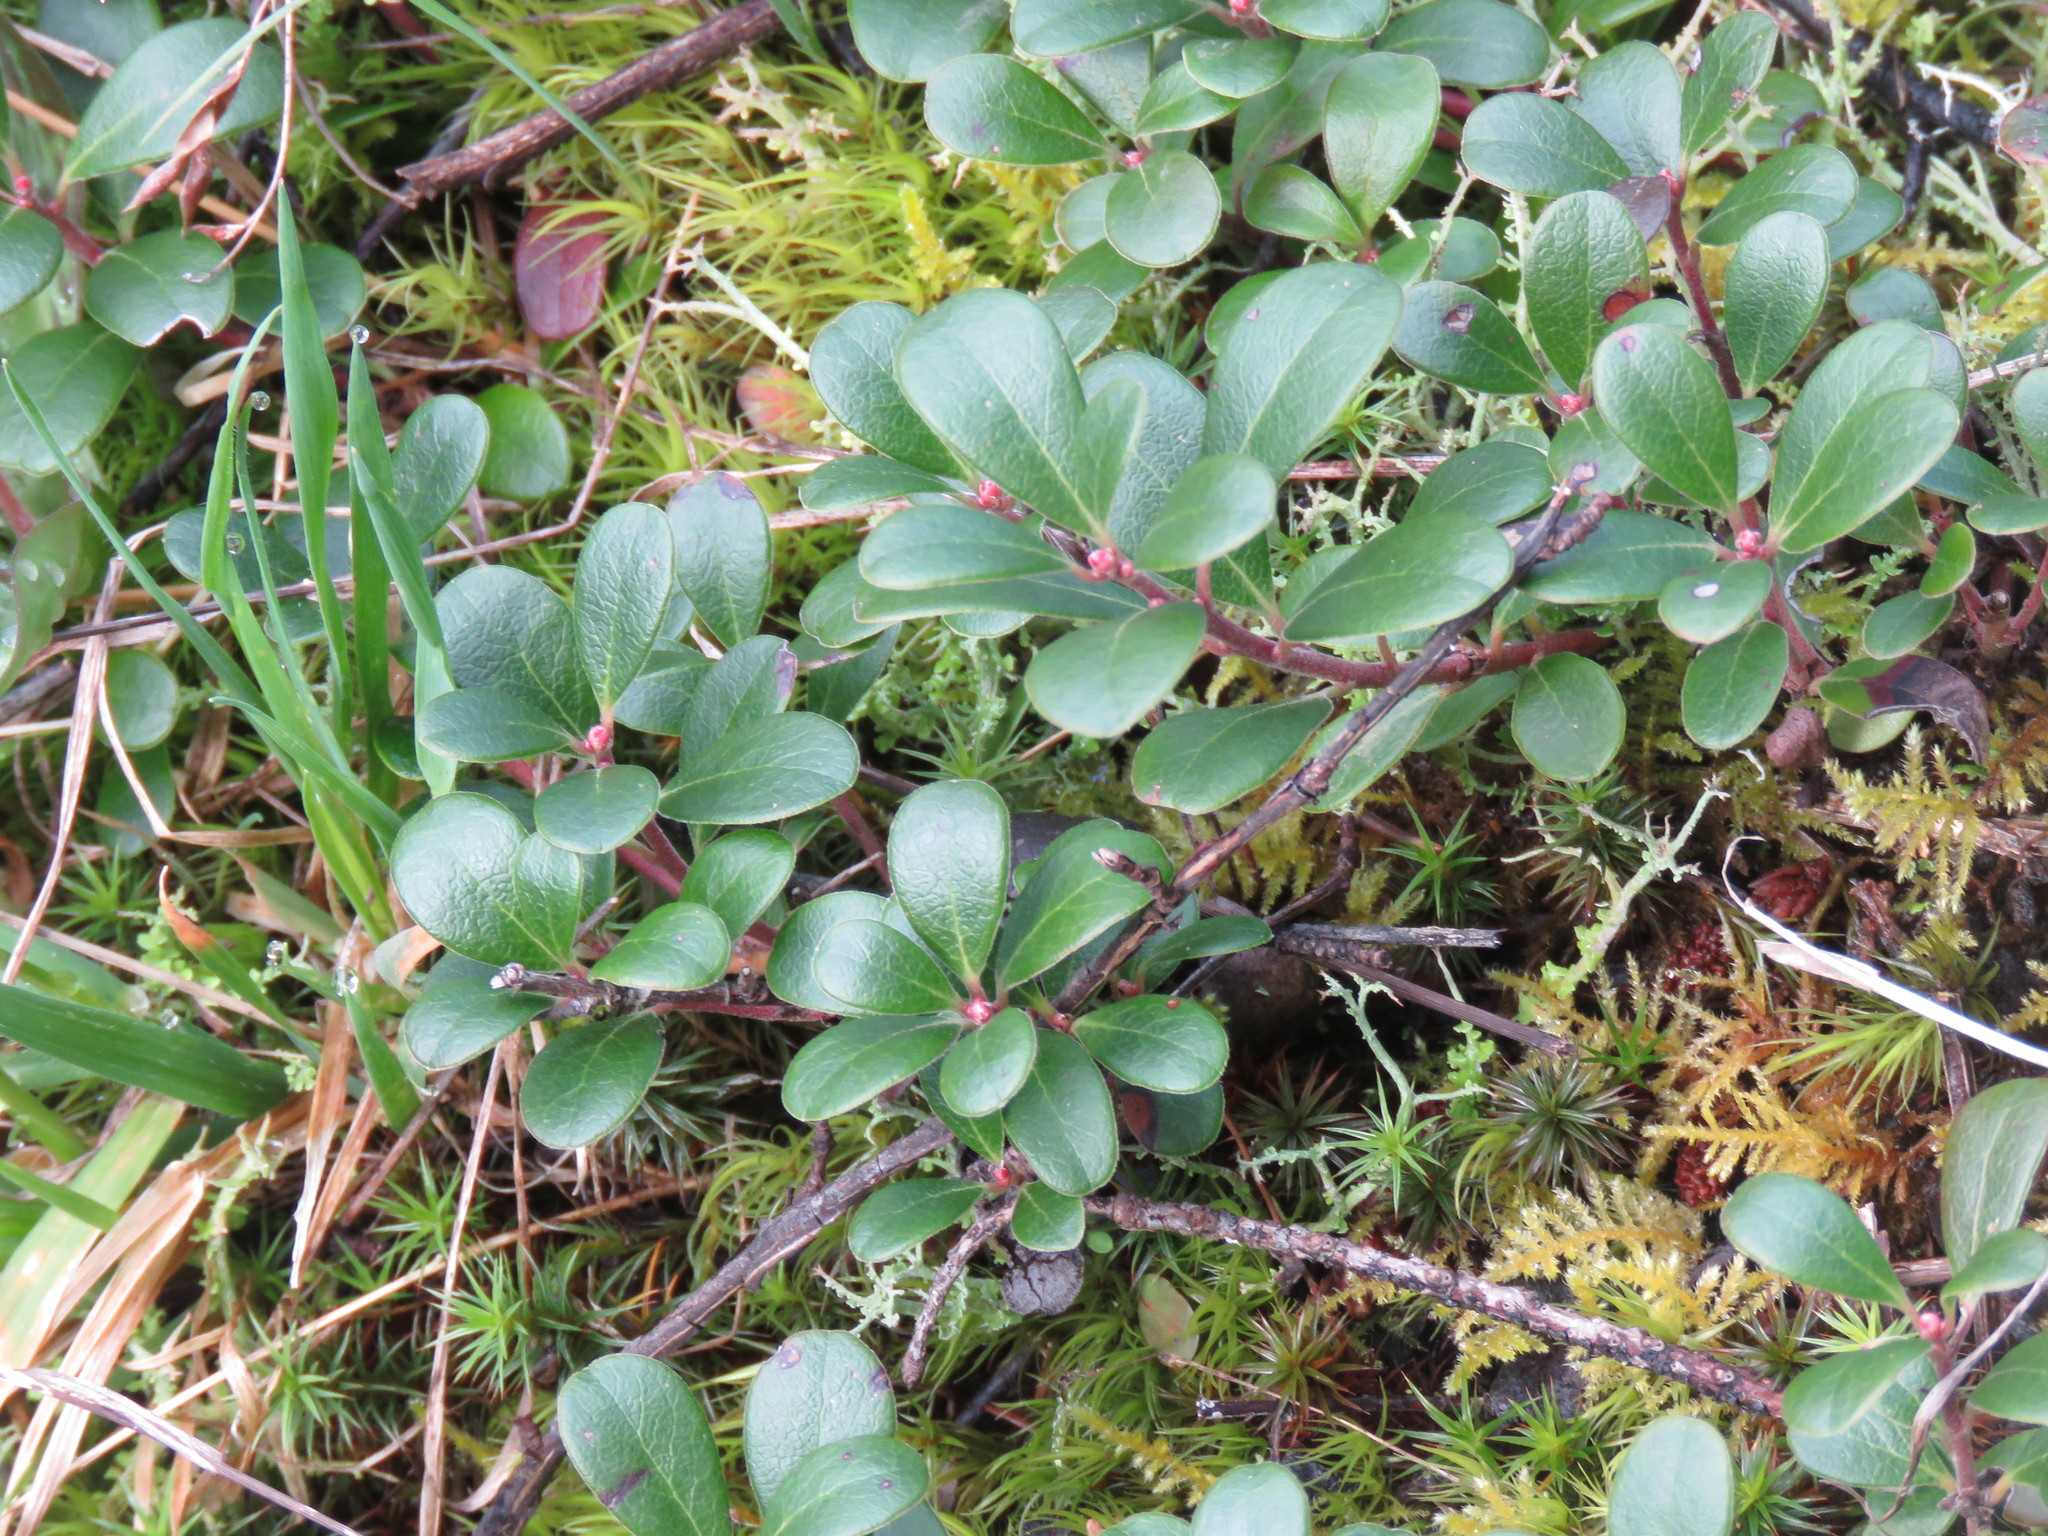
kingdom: Plantae
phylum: Tracheophyta
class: Magnoliopsida
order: Ericales
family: Ericaceae
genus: Arctostaphylos
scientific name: Arctostaphylos uva-ursi
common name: Bearberry
